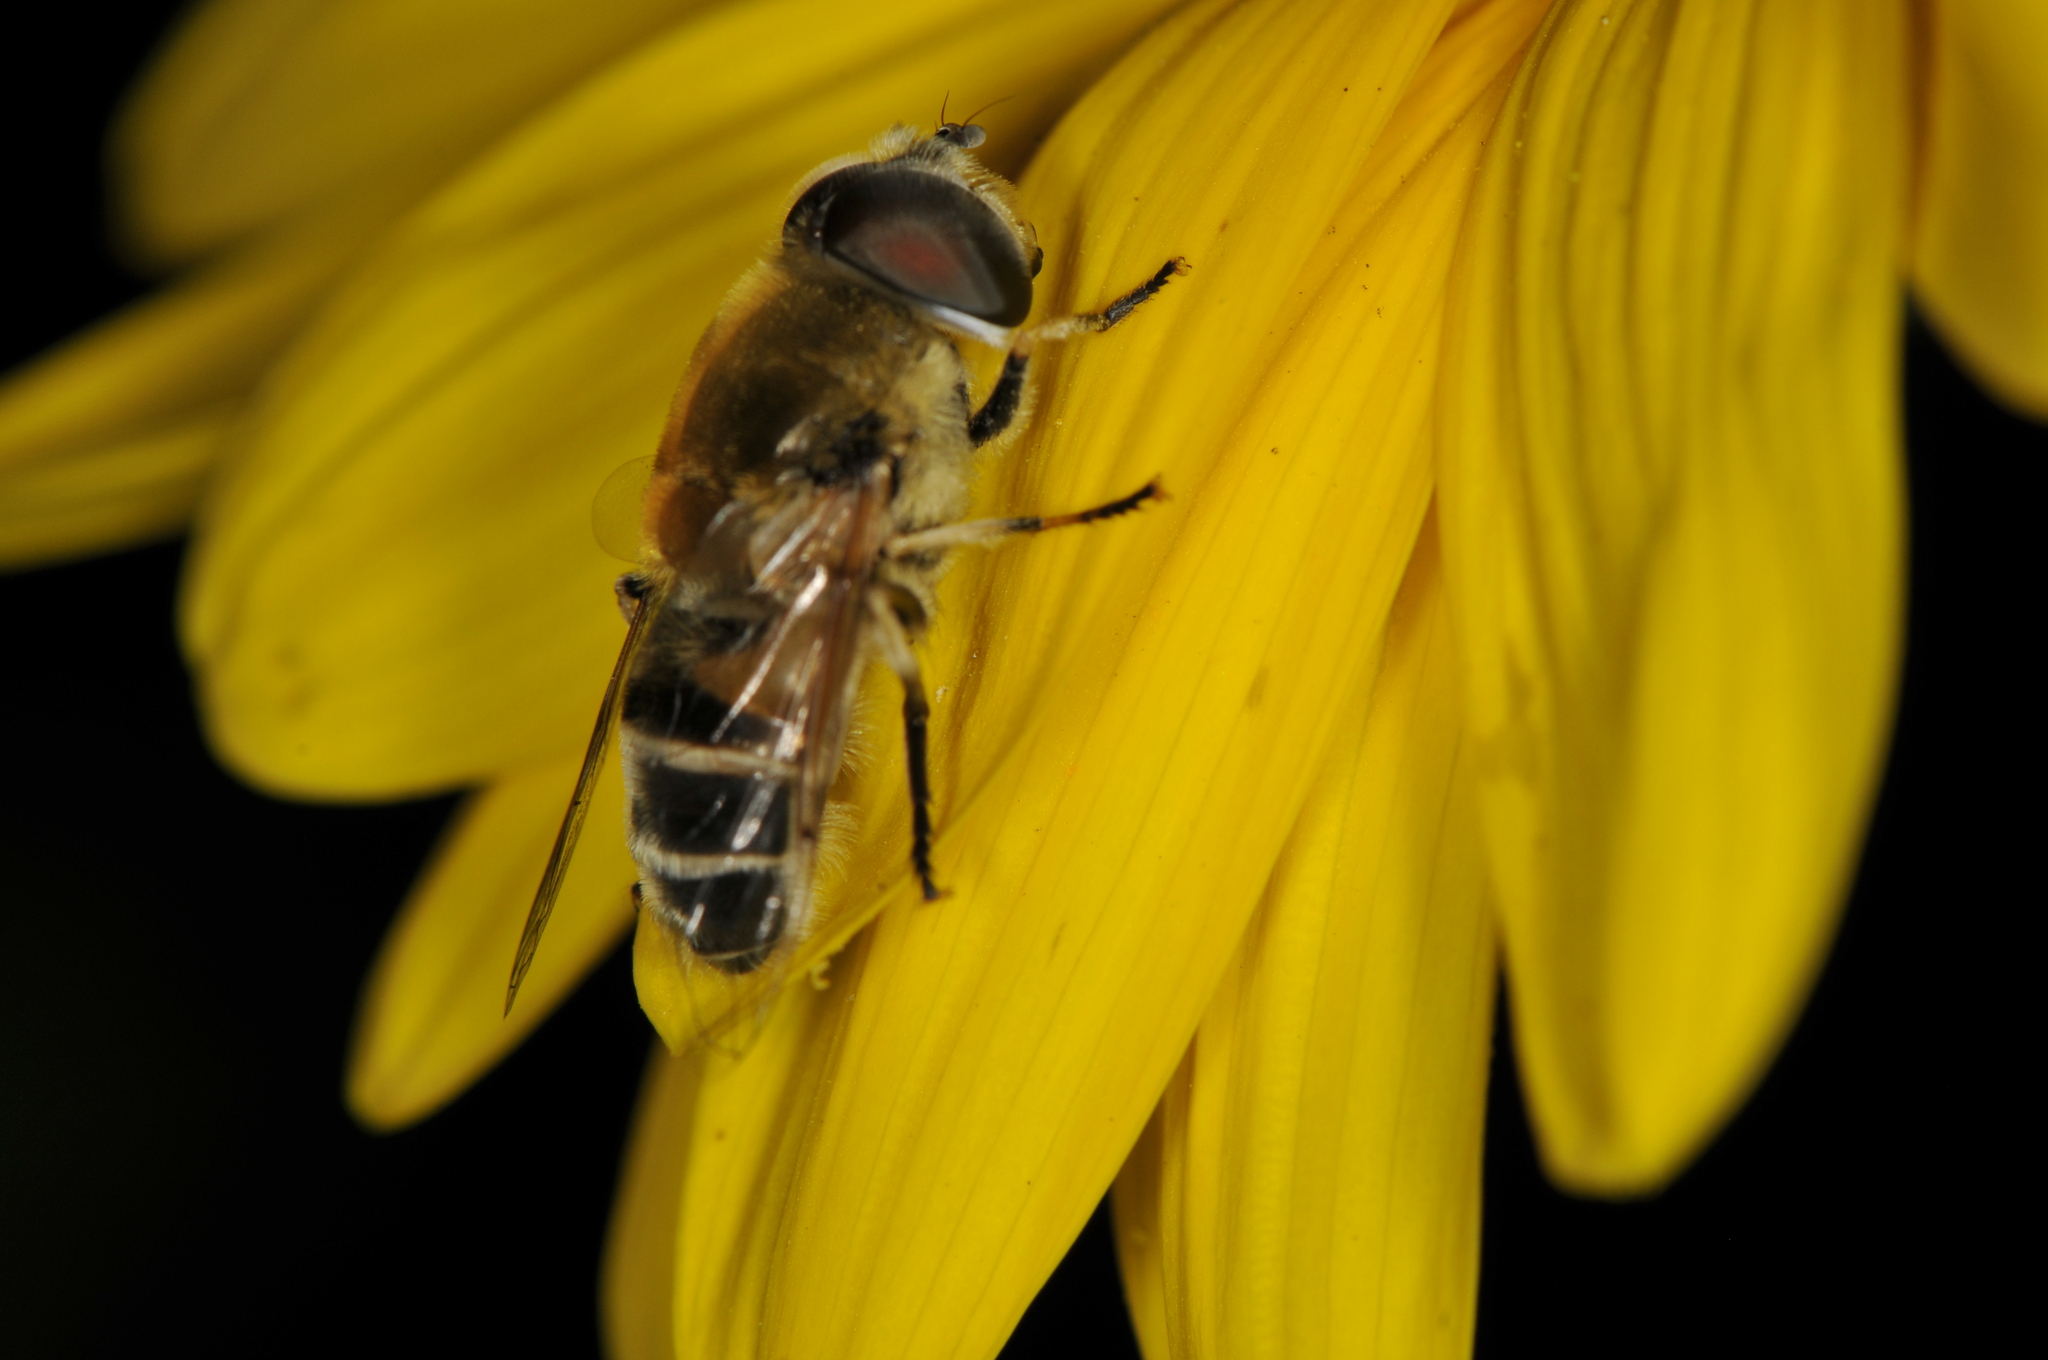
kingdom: Animalia
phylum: Arthropoda
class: Insecta
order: Diptera
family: Syrphidae
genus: Eristalis
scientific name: Eristalis stipator
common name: Yellow-shouldered drone fly
